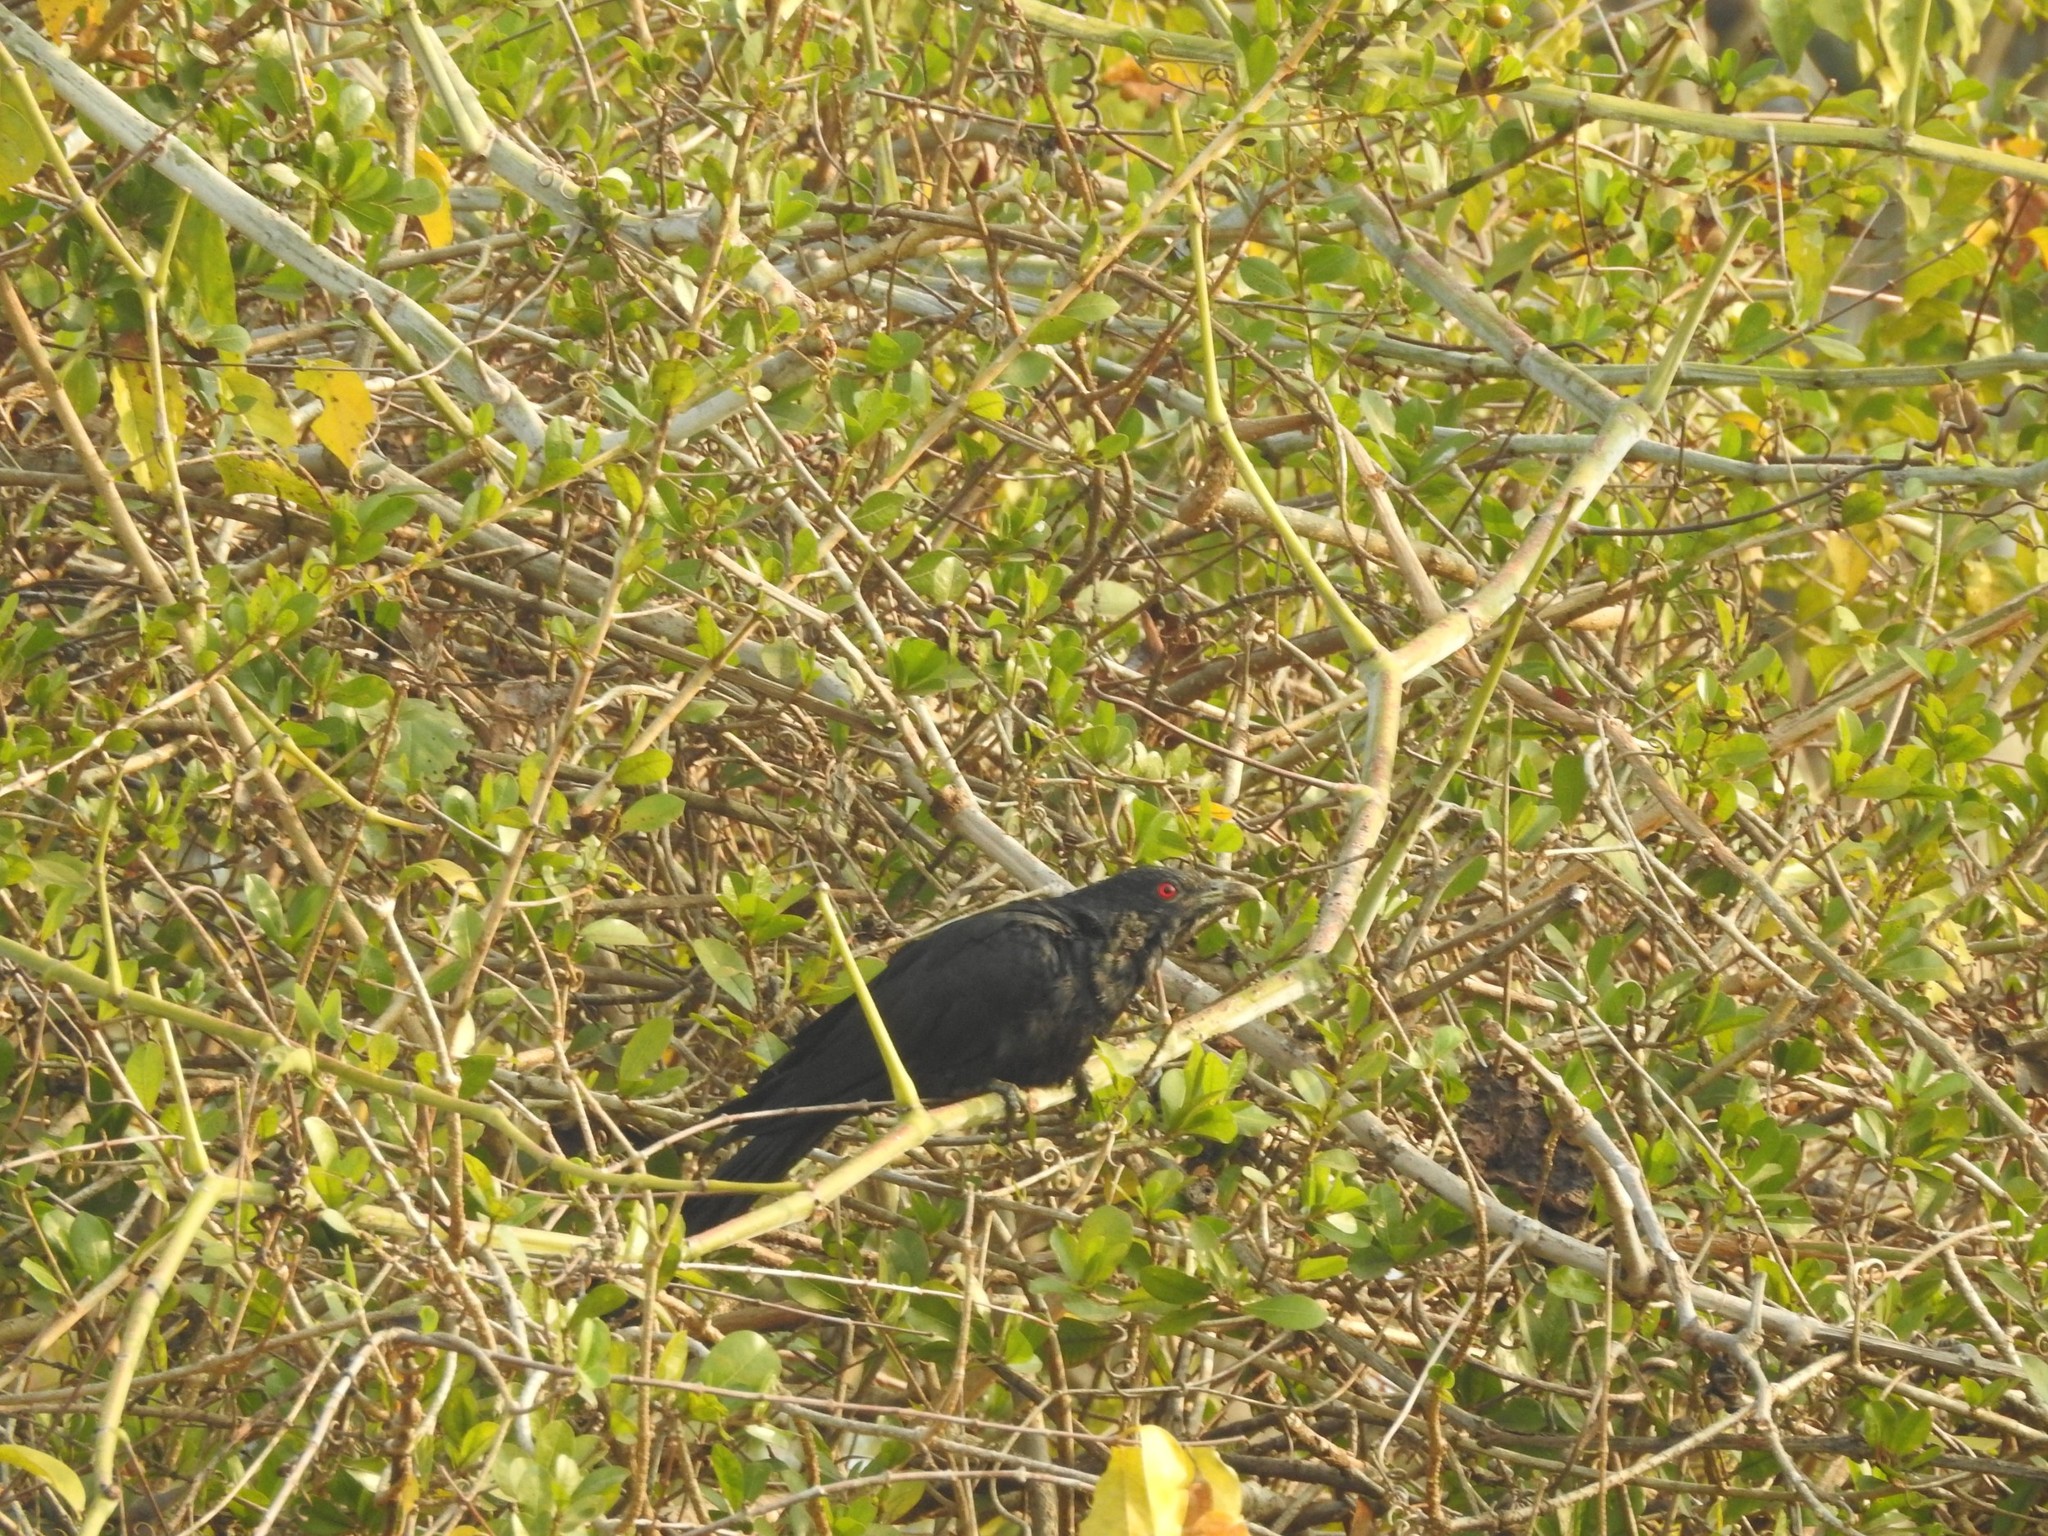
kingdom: Animalia
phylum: Chordata
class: Aves
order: Cuculiformes
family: Cuculidae
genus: Eudynamys
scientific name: Eudynamys scolopaceus
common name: Asian koel
